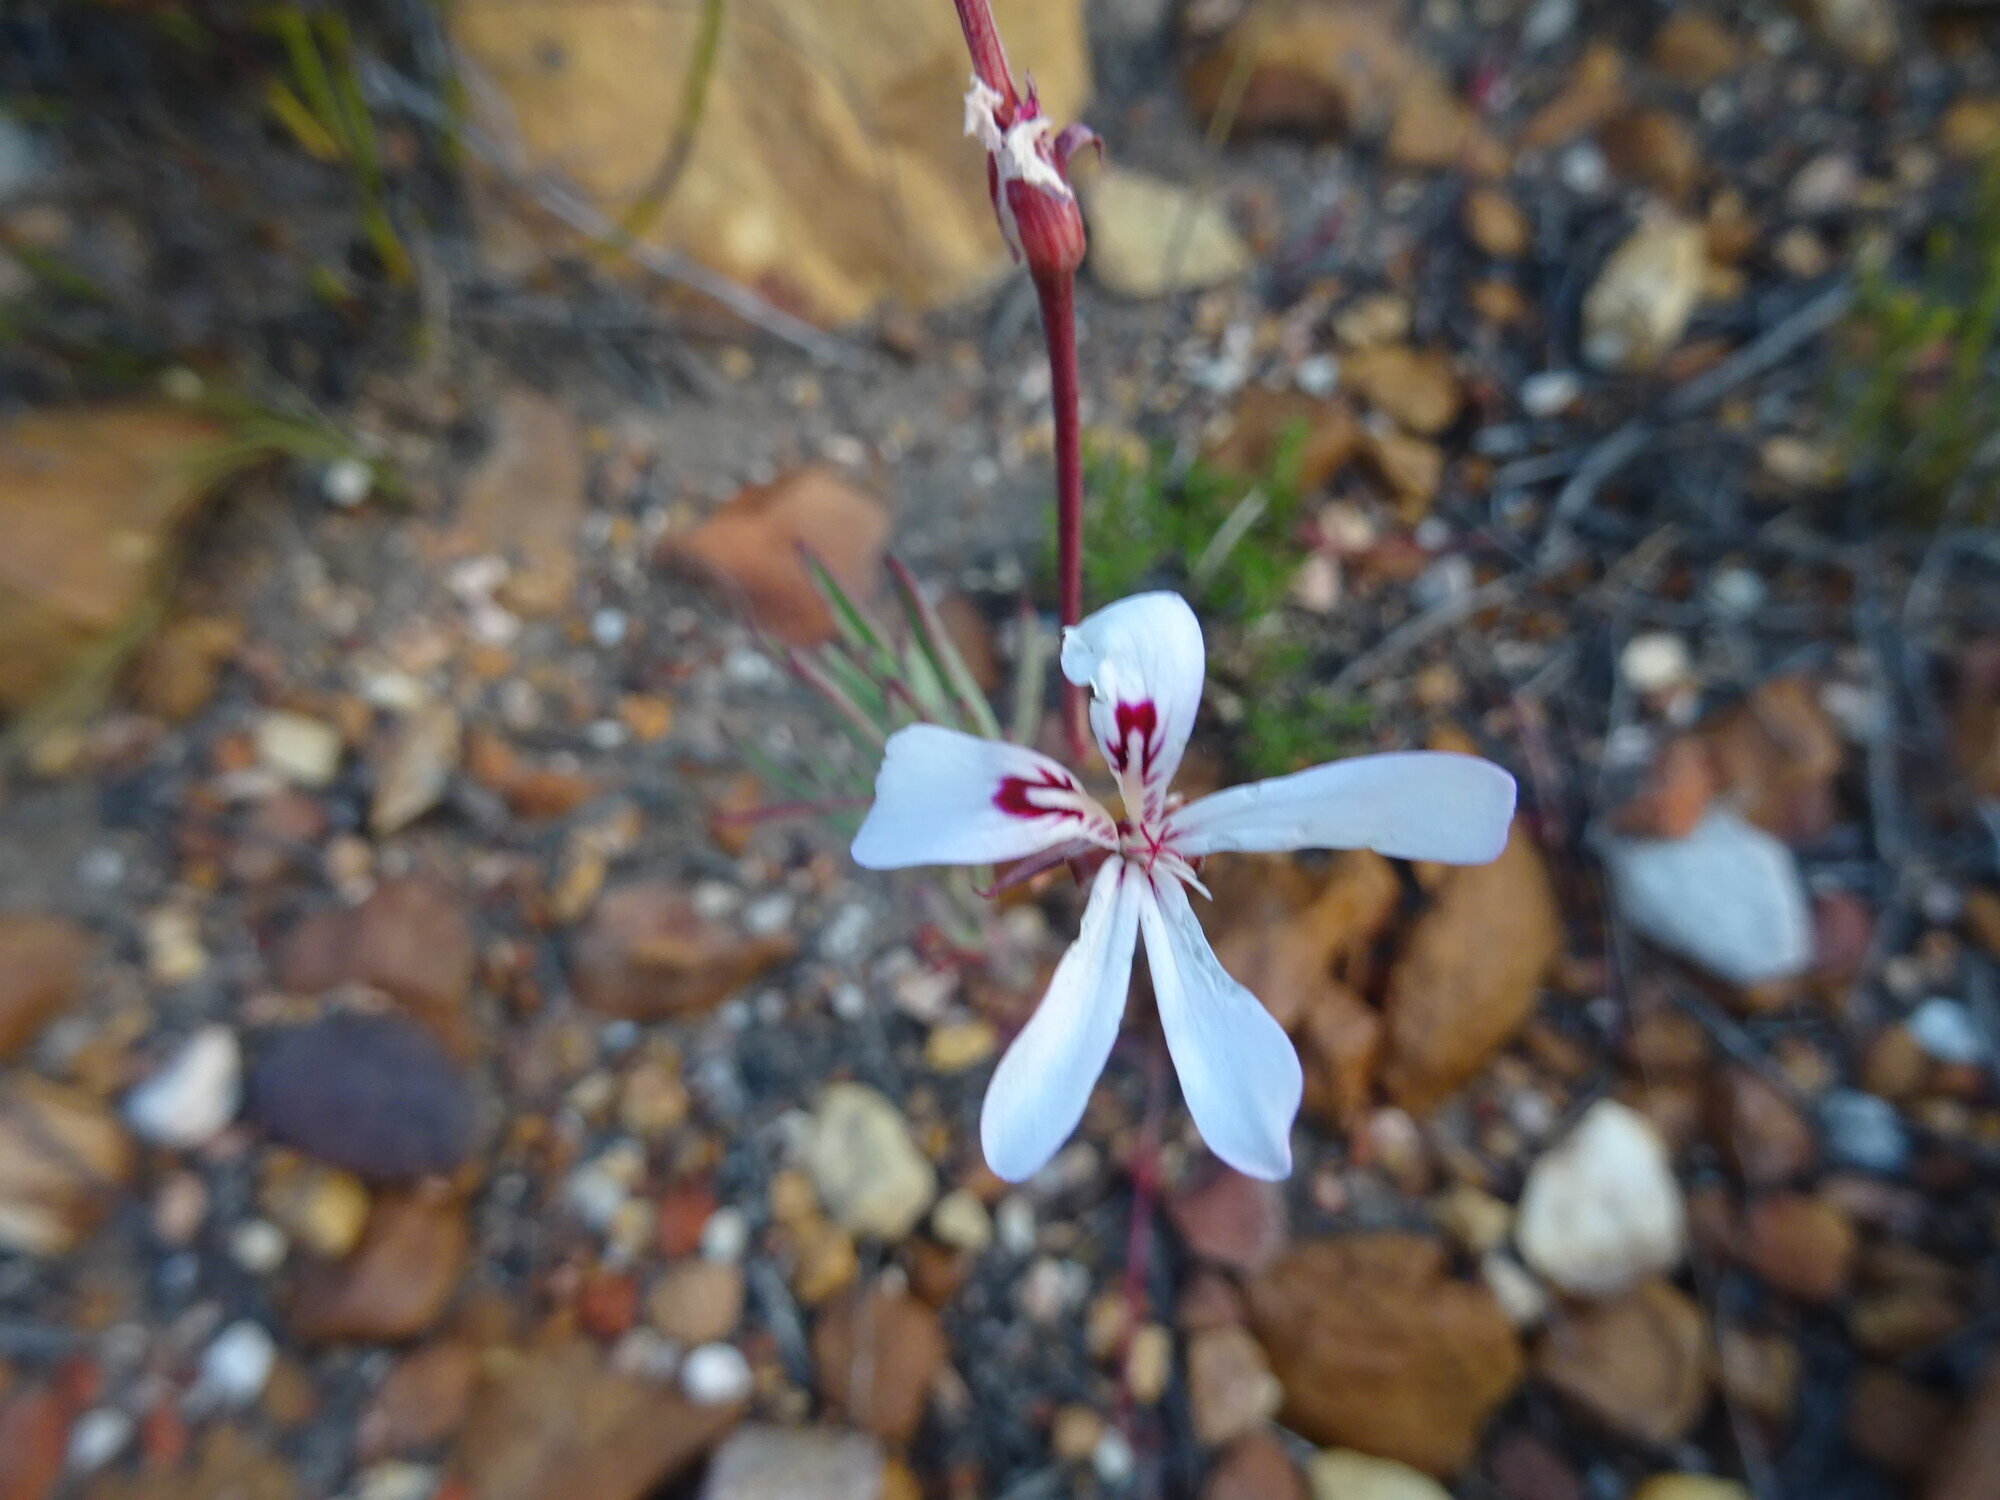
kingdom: Plantae
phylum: Tracheophyta
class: Magnoliopsida
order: Geraniales
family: Geraniaceae
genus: Pelargonium
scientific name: Pelargonium laevigatum
